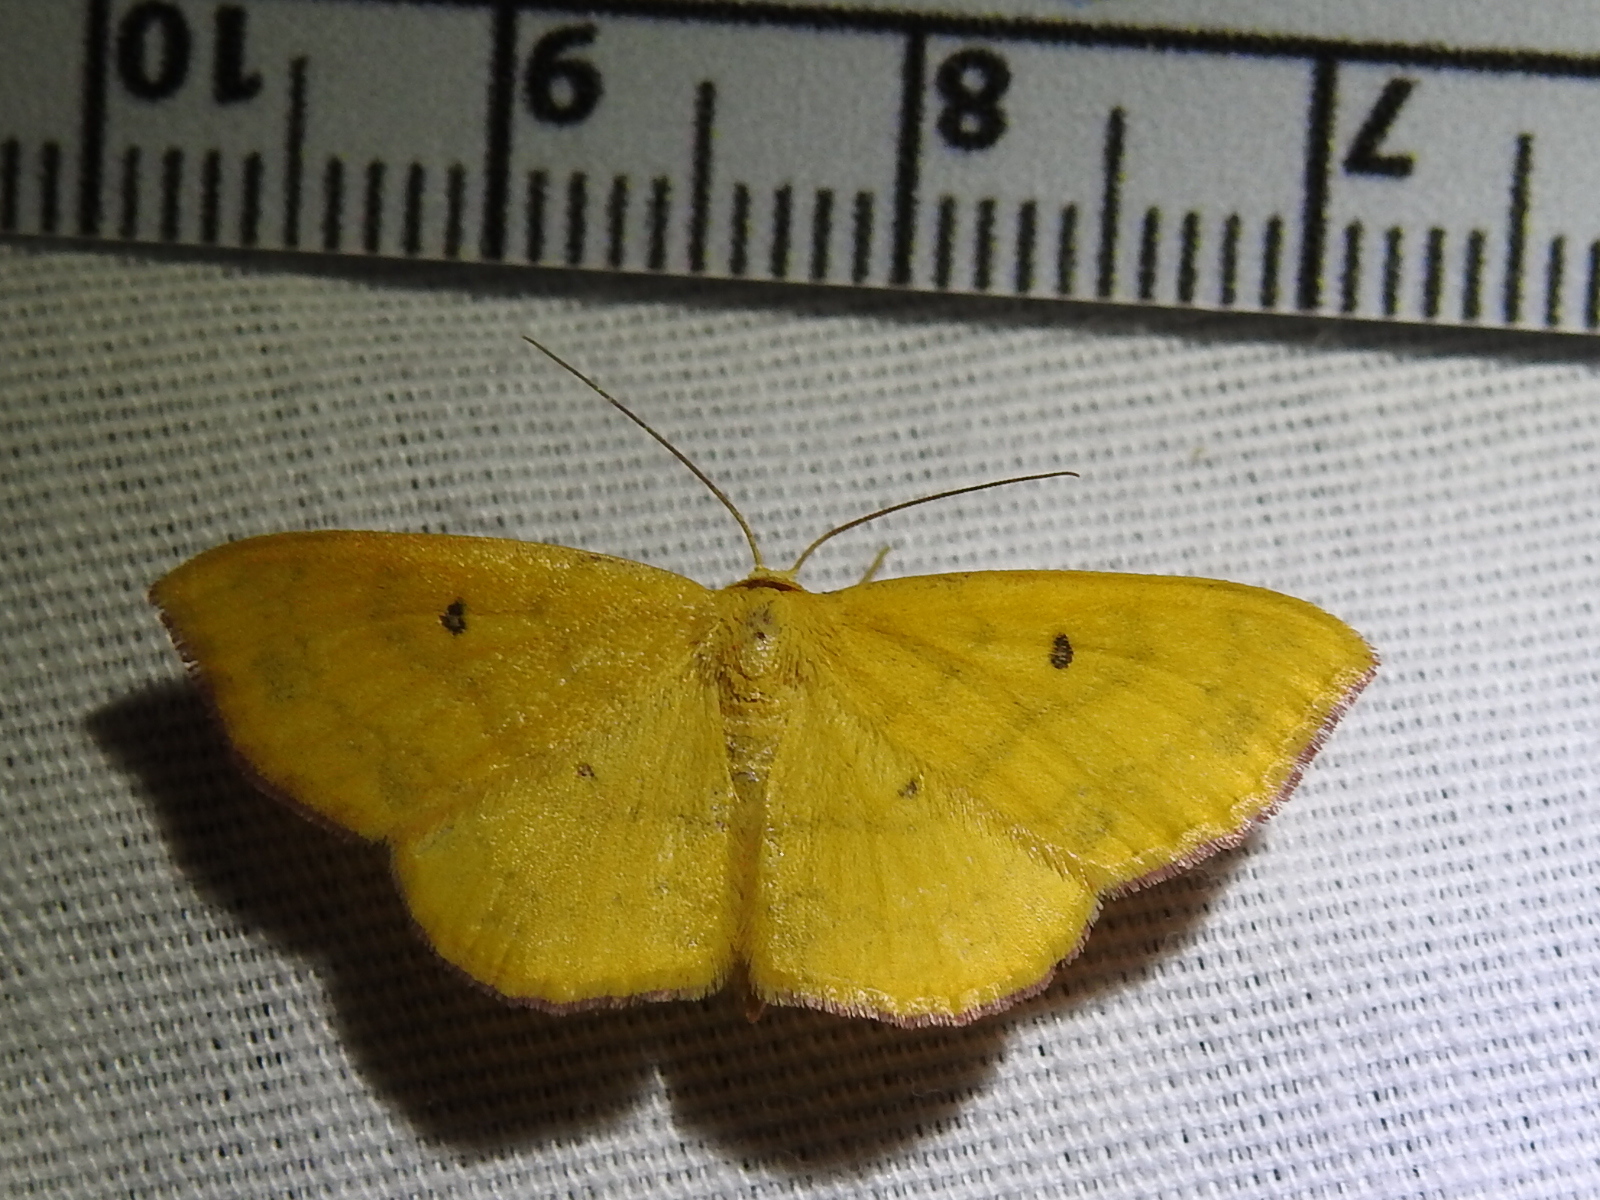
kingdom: Animalia
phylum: Arthropoda
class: Insecta
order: Lepidoptera
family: Geometridae
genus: Semaeopus
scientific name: Semaeopus ella
